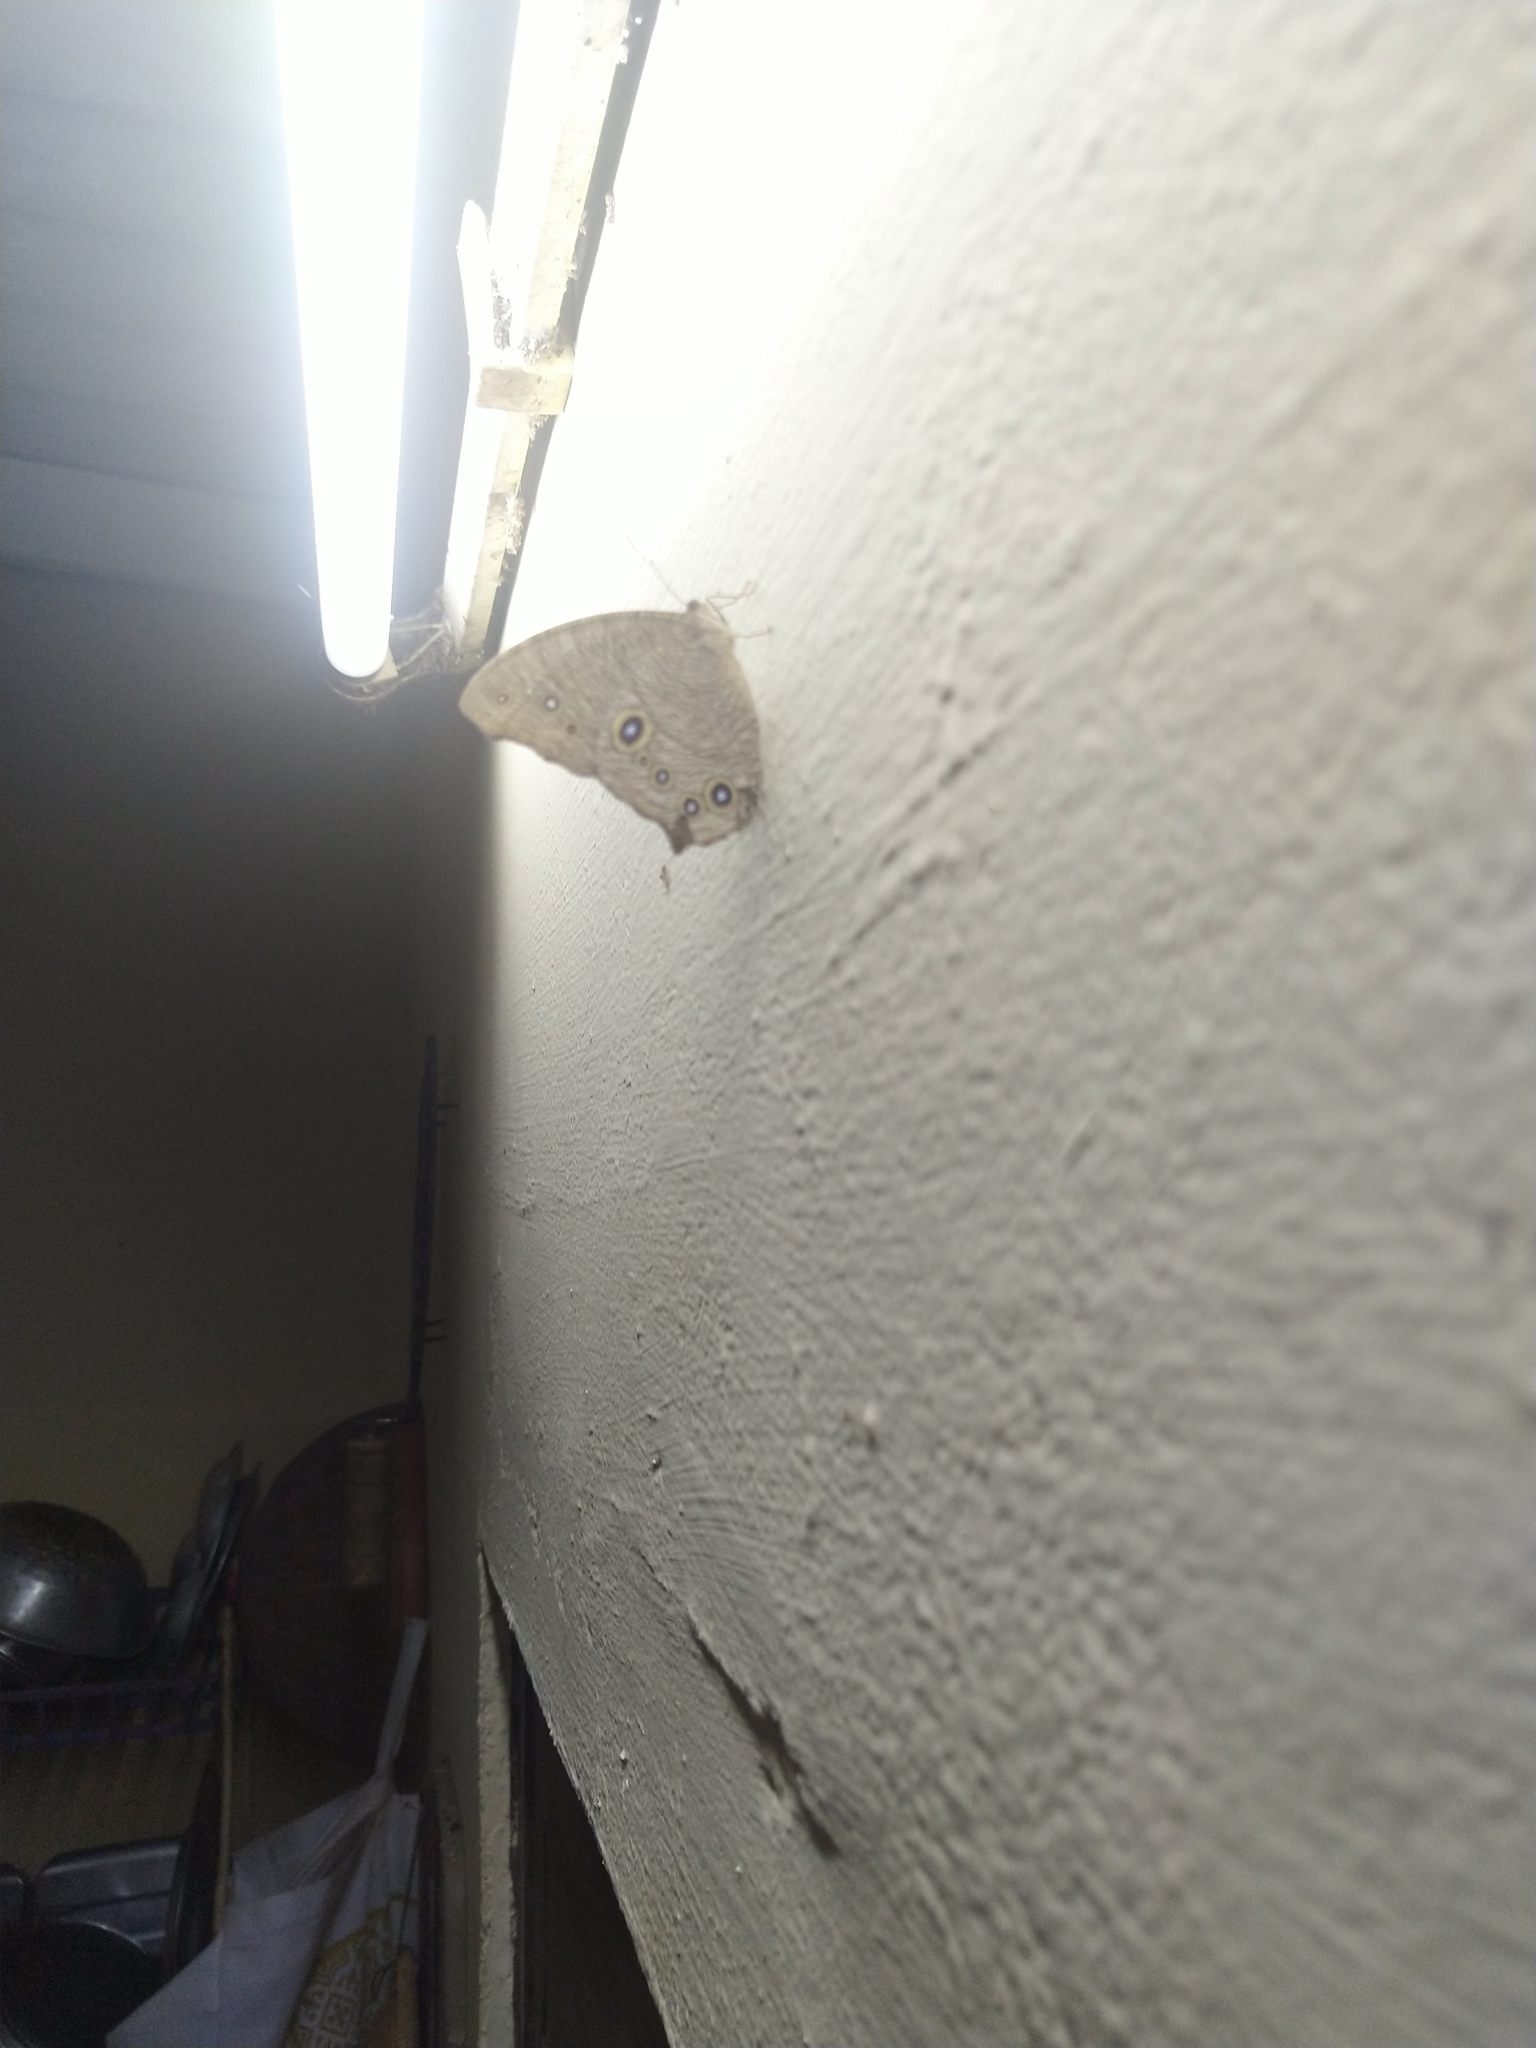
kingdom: Animalia
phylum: Arthropoda
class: Insecta
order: Lepidoptera
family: Nymphalidae
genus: Melanitis
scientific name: Melanitis leda
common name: Twilight brown
